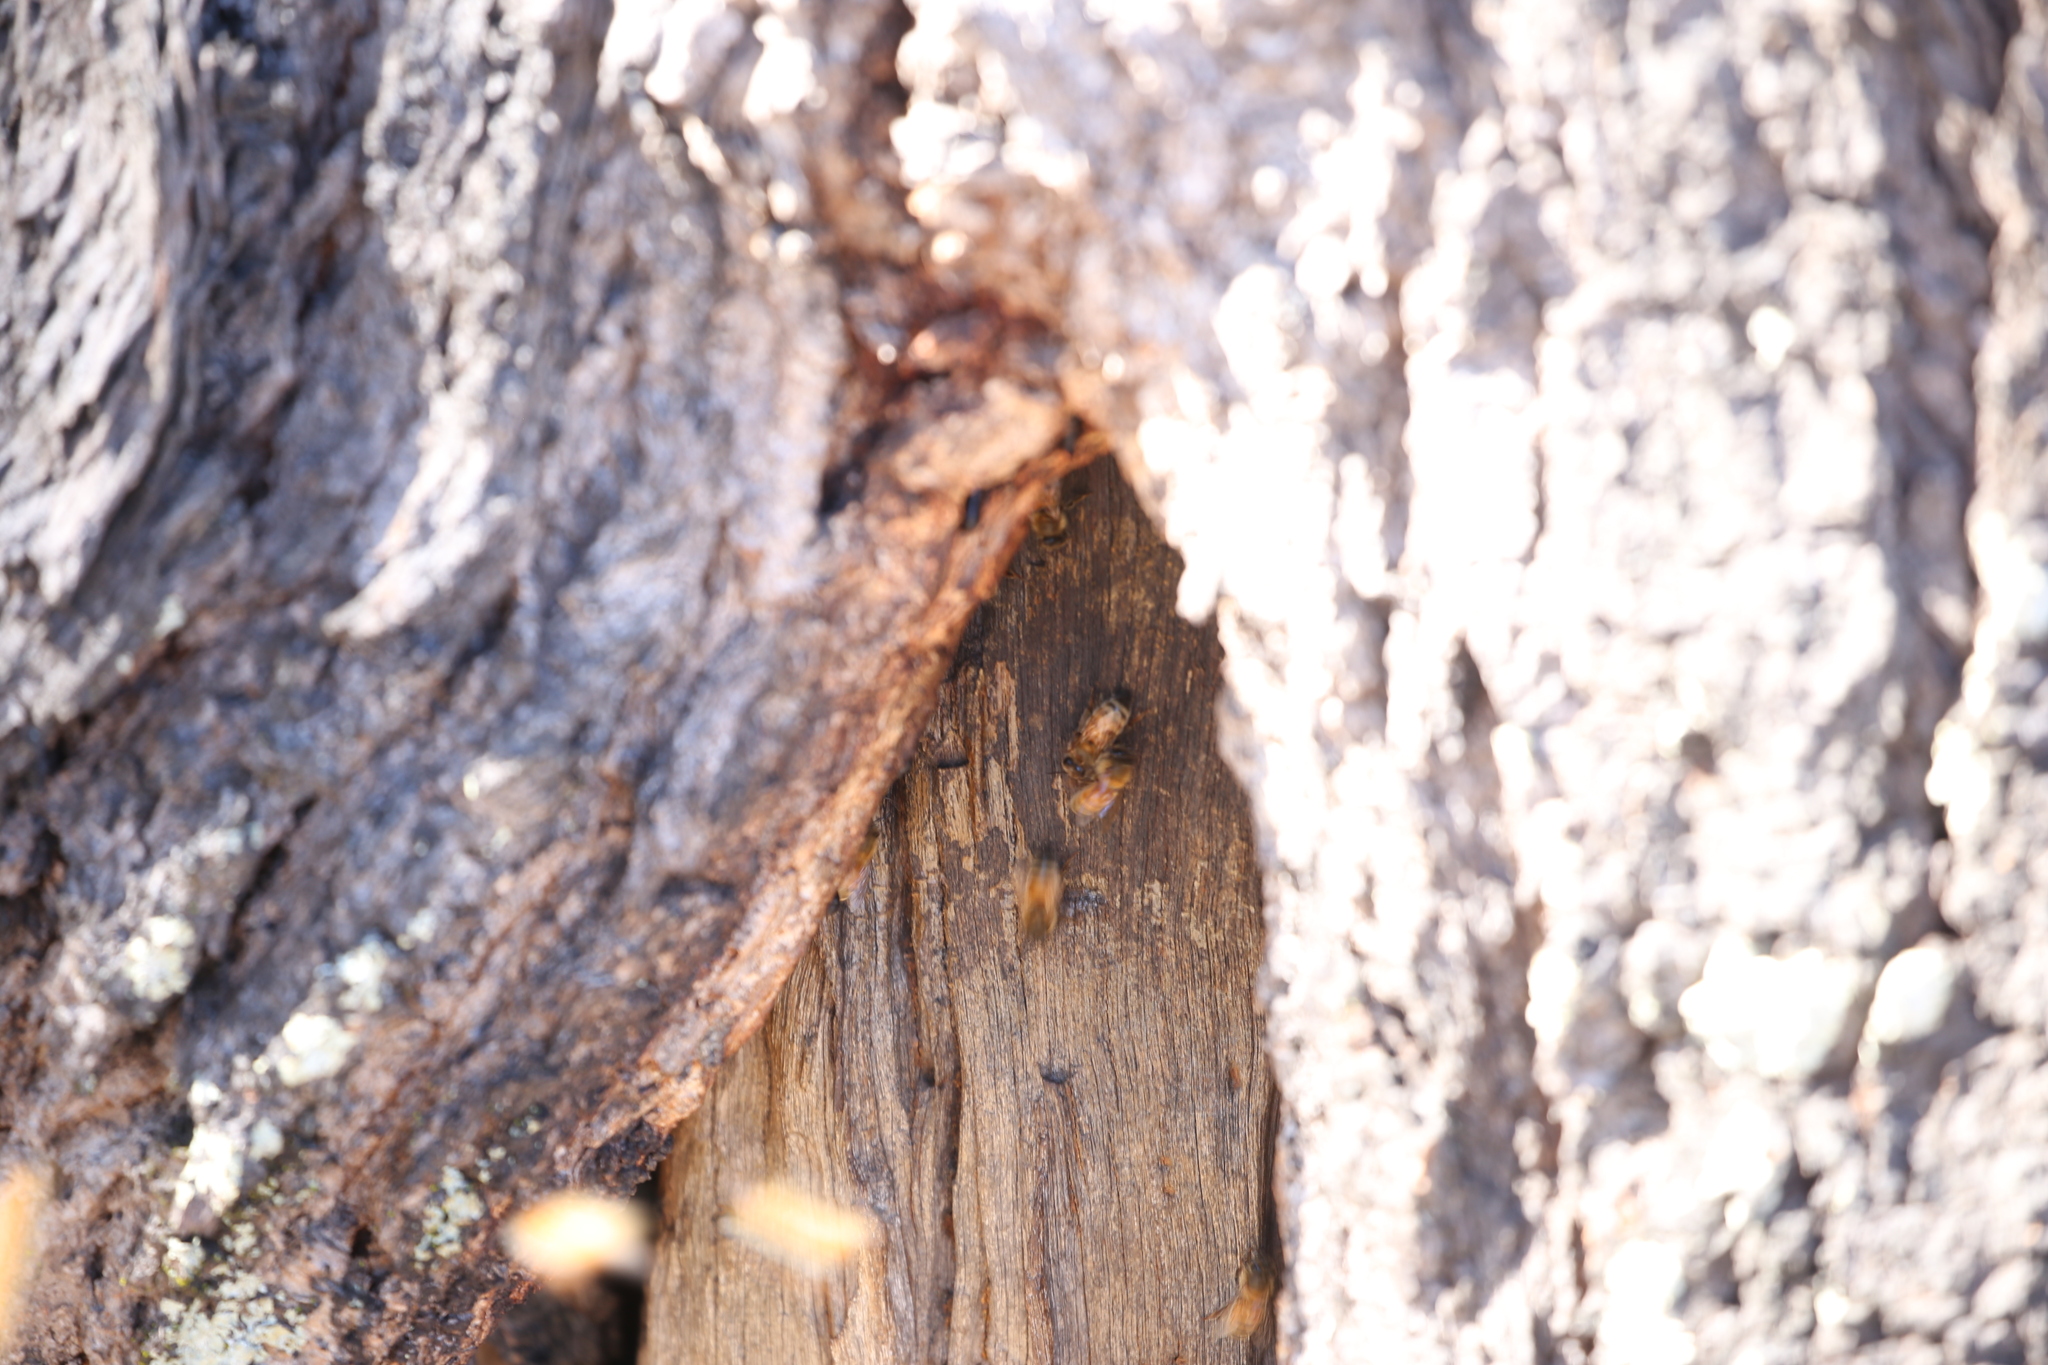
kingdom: Animalia
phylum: Arthropoda
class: Insecta
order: Hymenoptera
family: Apidae
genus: Apis
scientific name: Apis mellifera
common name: Honey bee
